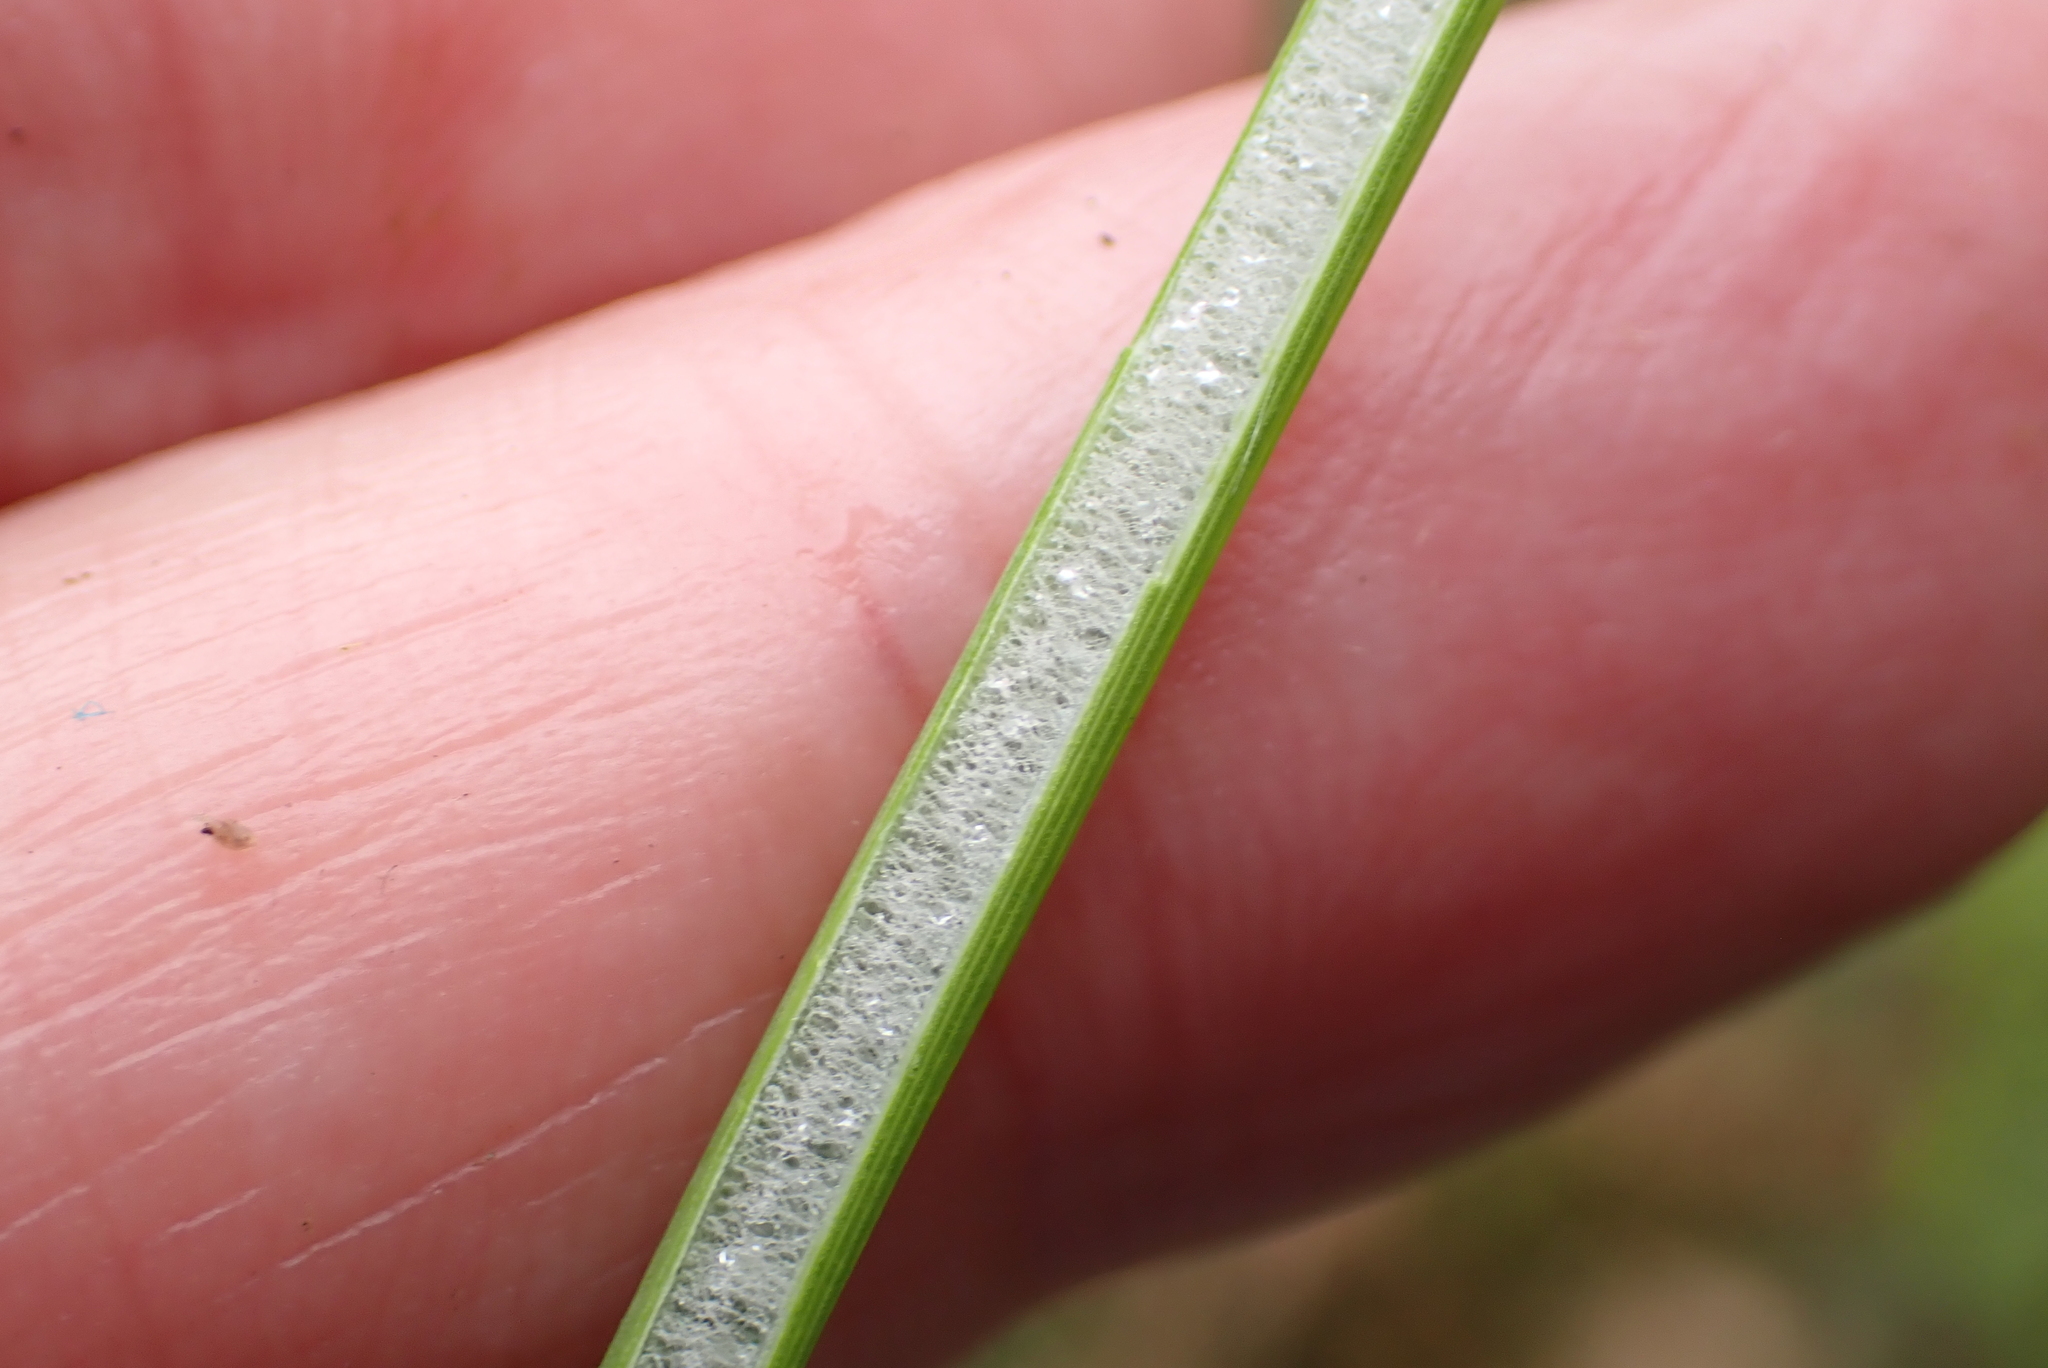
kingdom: Plantae
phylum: Tracheophyta
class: Liliopsida
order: Poales
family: Juncaceae
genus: Juncus
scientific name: Juncus effusus
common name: Soft rush
